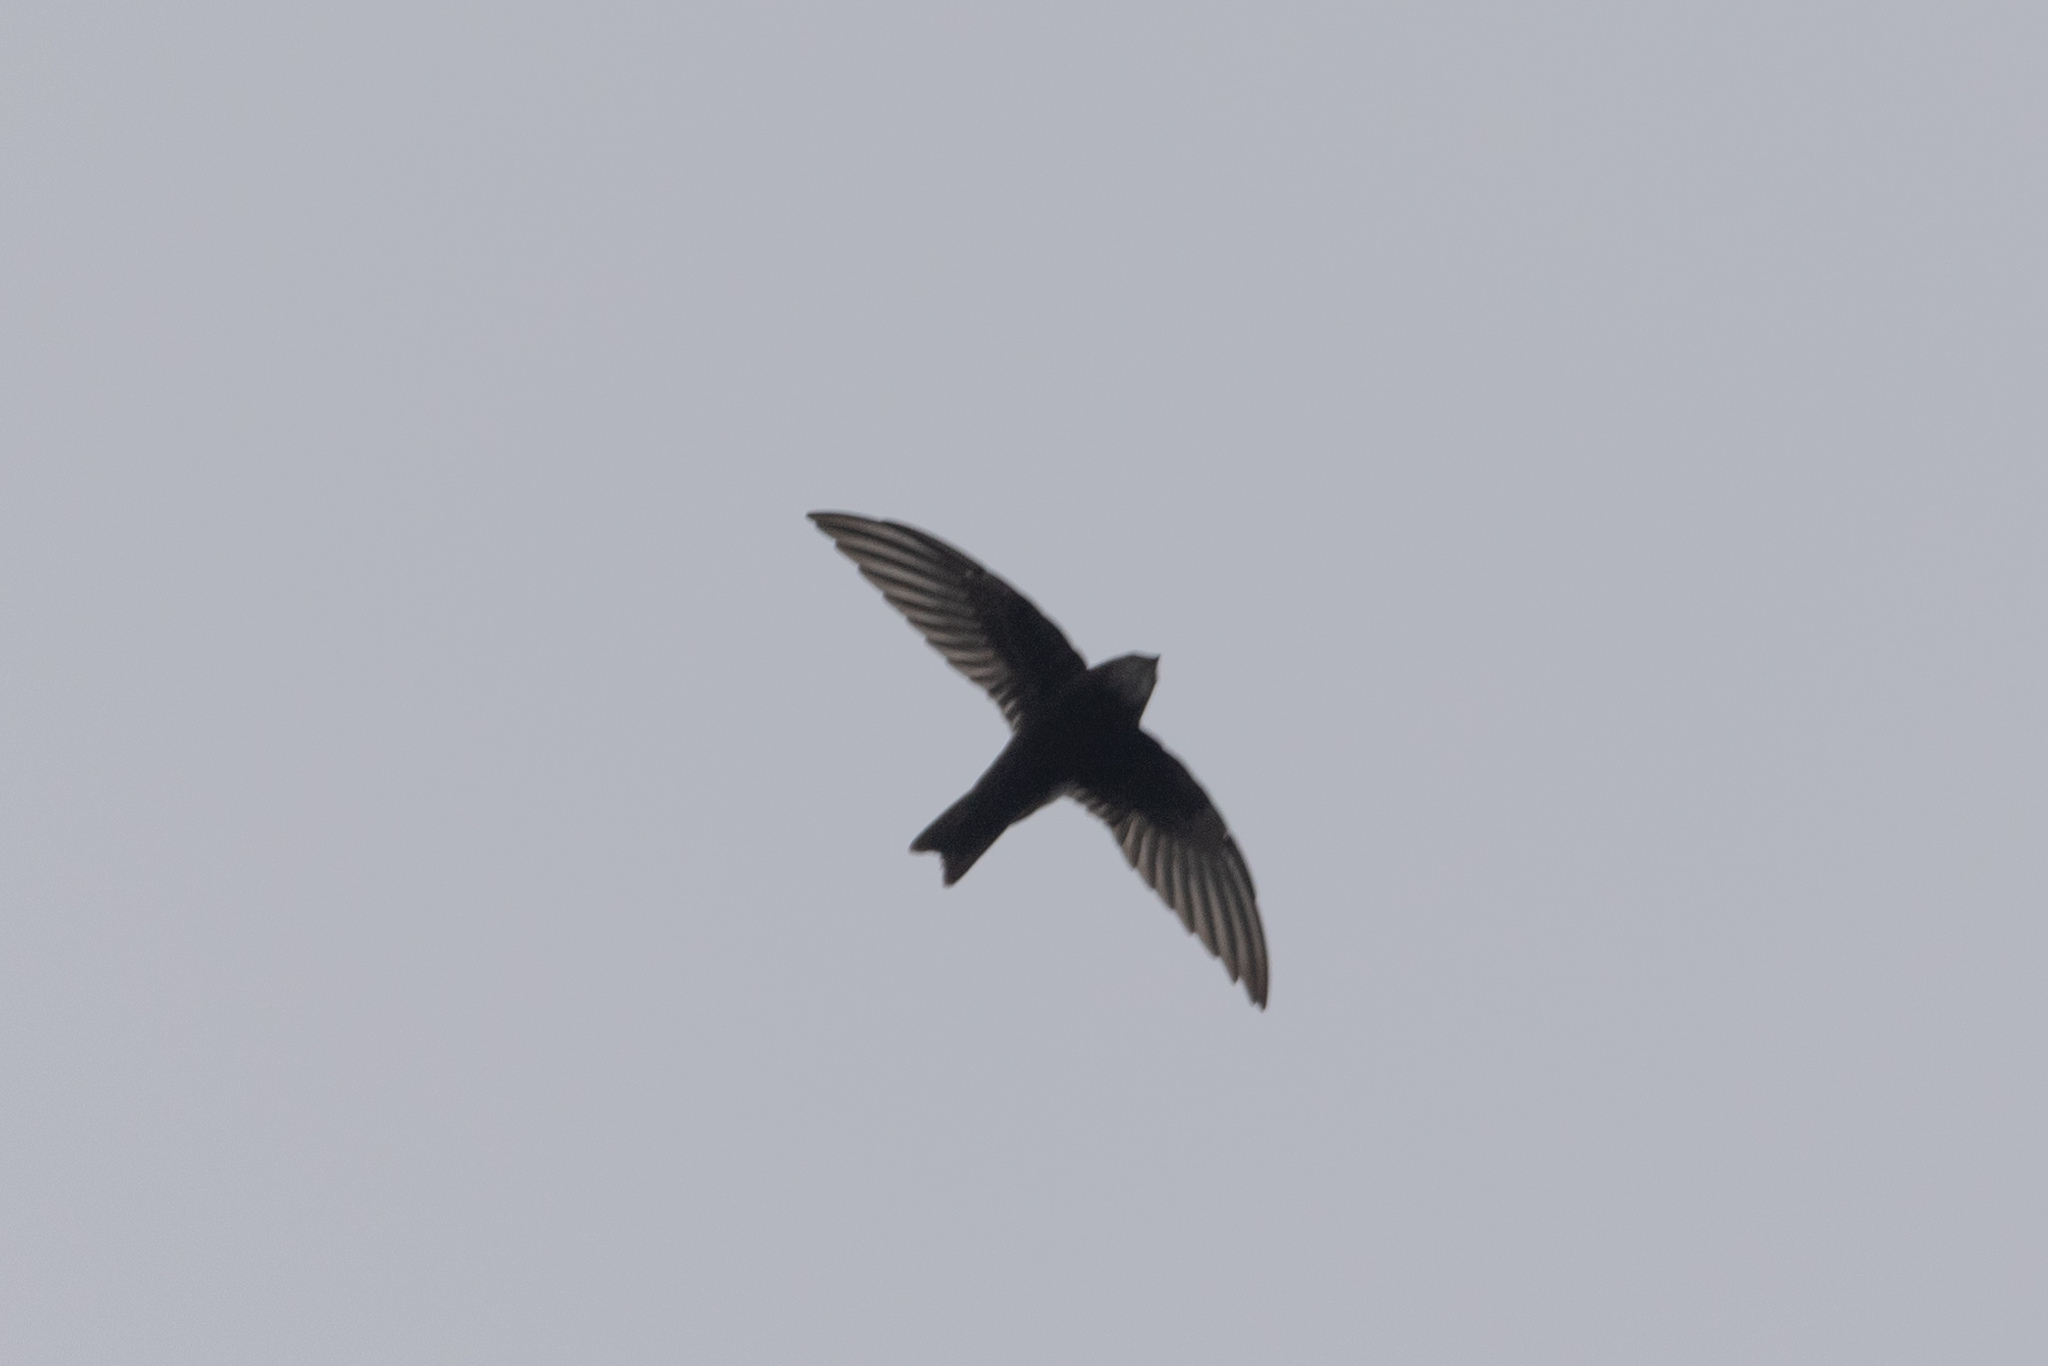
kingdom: Animalia
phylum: Chordata
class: Aves
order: Apodiformes
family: Apodidae
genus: Apus
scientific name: Apus nipalensis
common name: House swift
